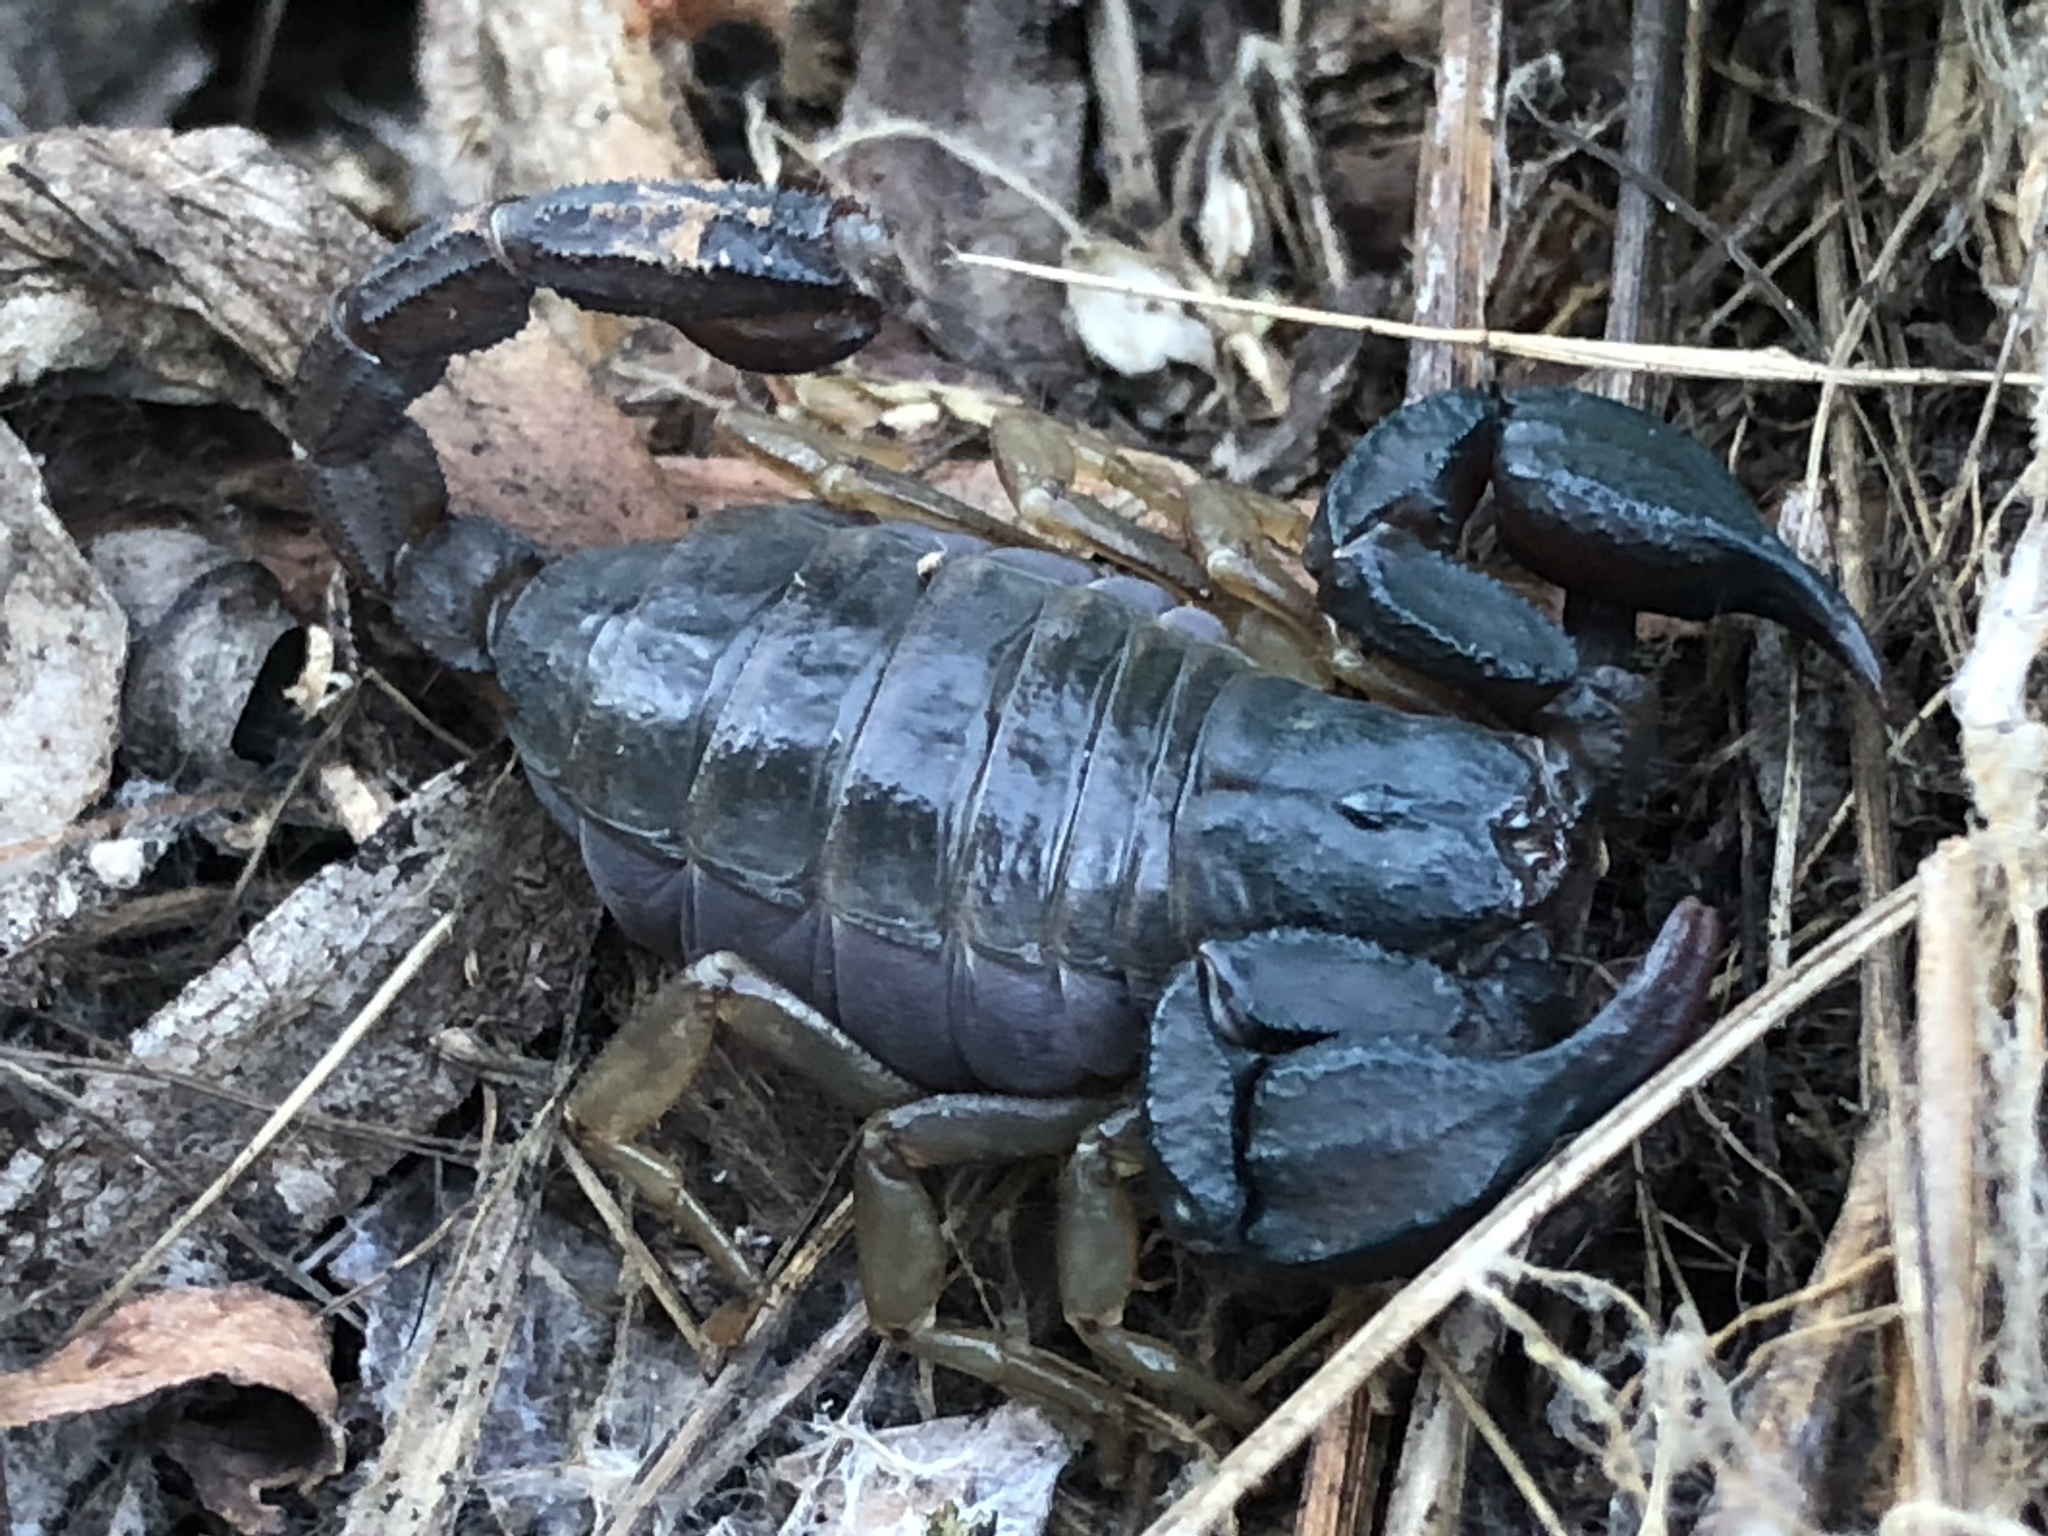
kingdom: Animalia
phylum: Arthropoda
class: Arachnida
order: Scorpiones
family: Chactidae
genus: Uroctonus
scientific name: Uroctonus mordax
